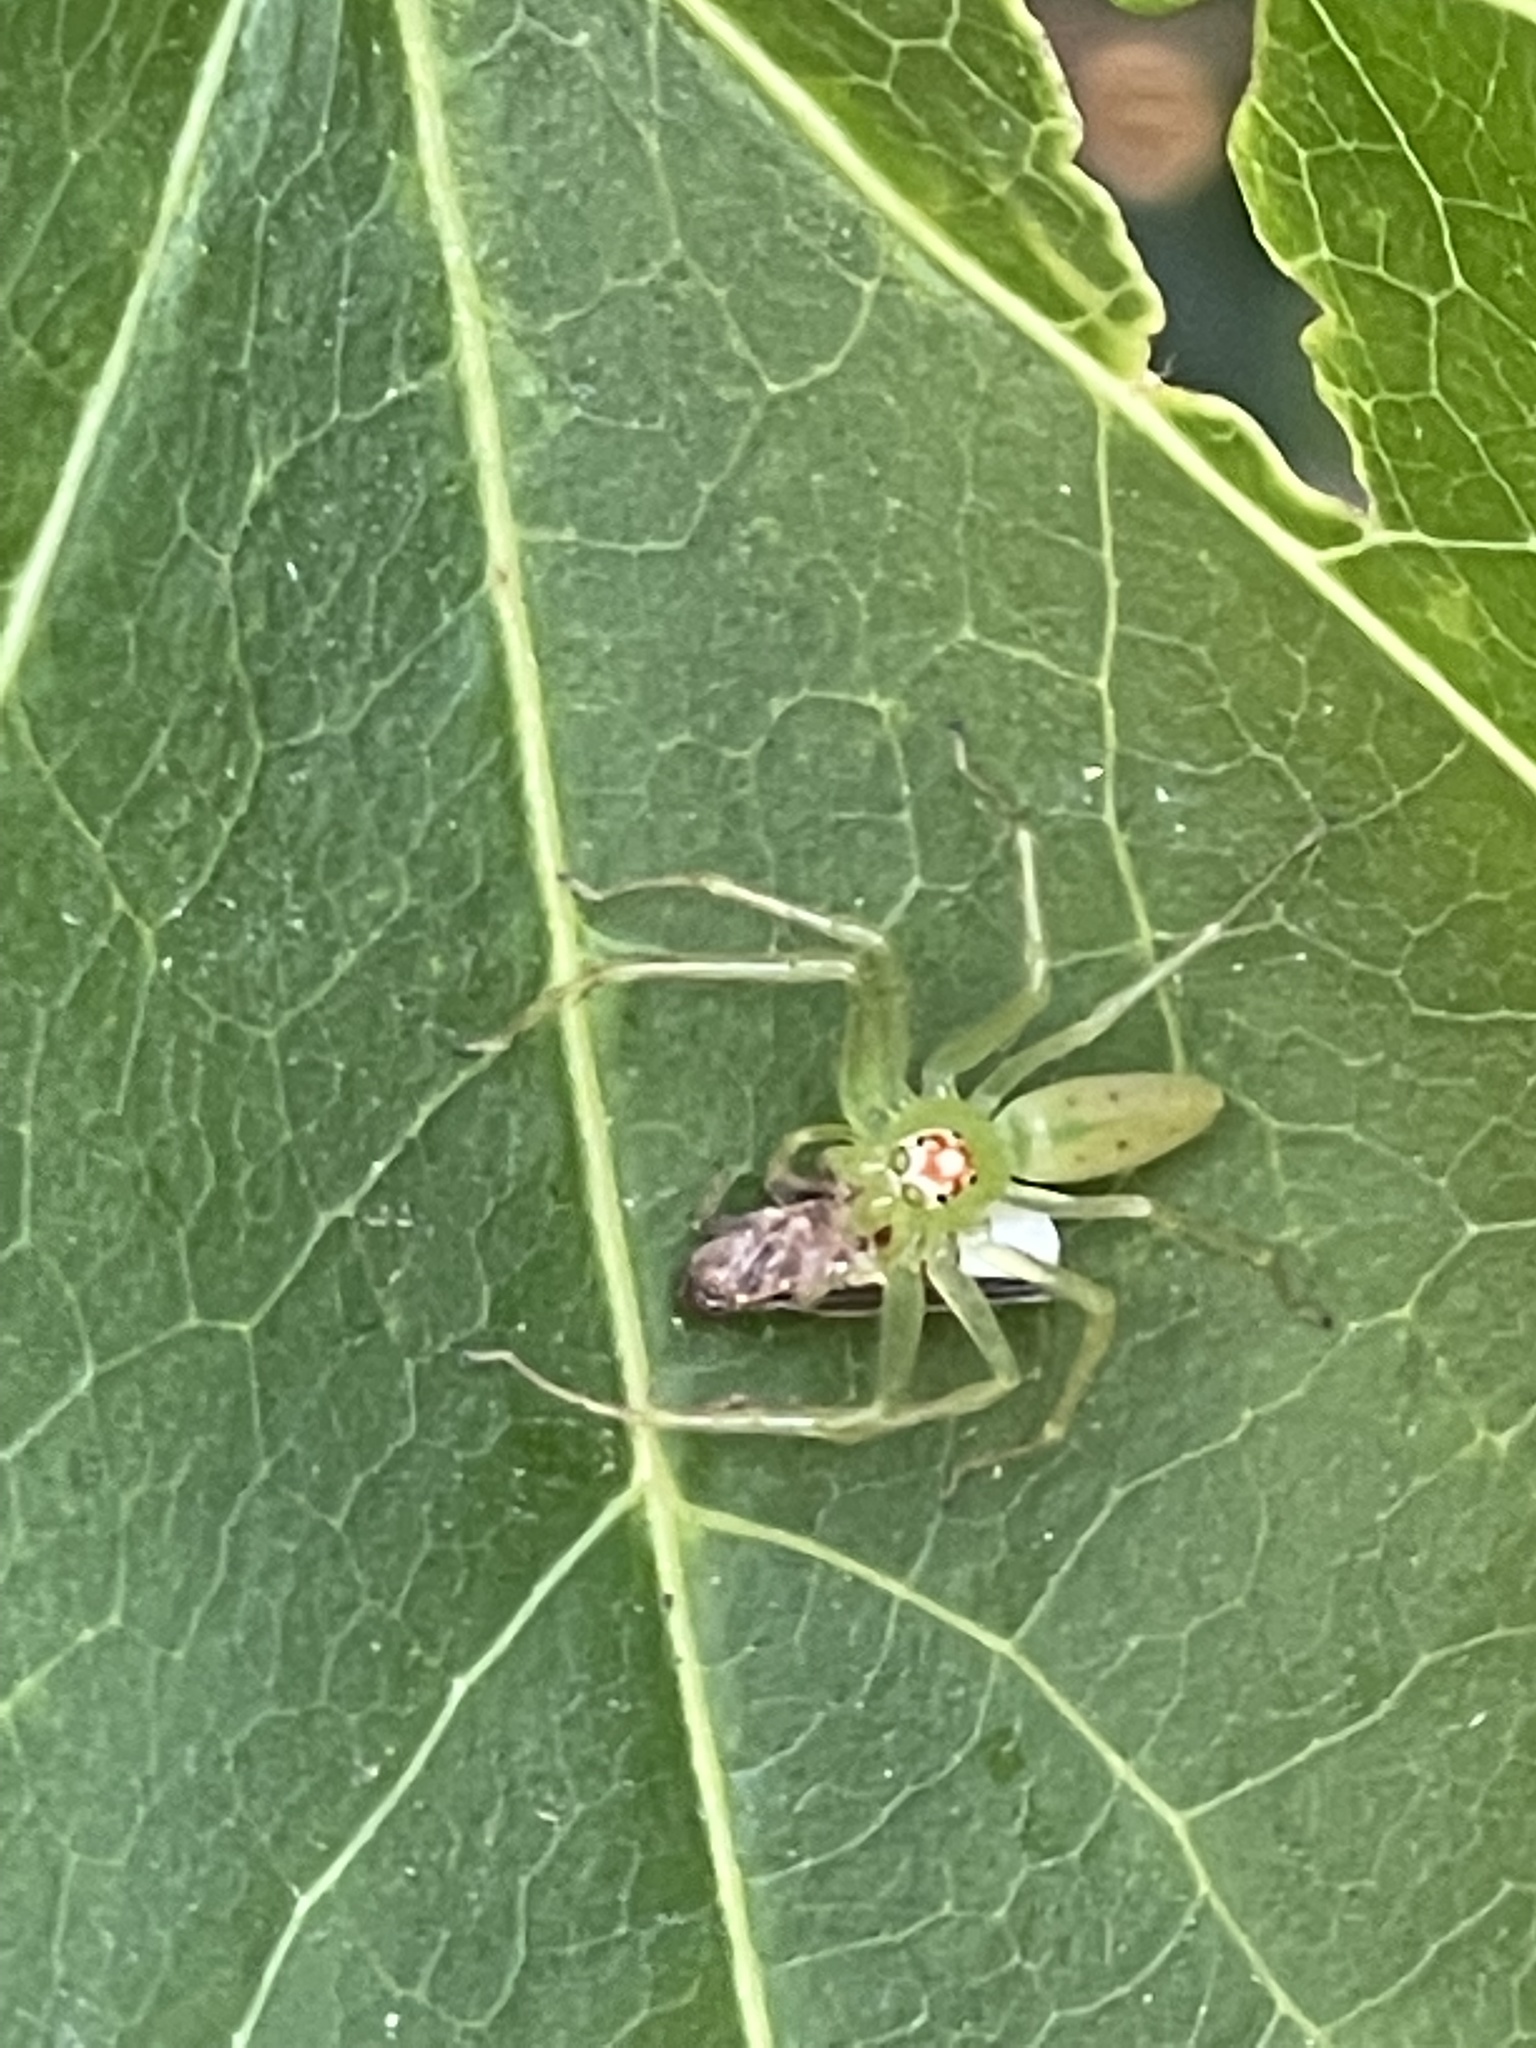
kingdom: Animalia
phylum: Arthropoda
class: Arachnida
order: Araneae
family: Salticidae
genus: Lyssomanes
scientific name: Lyssomanes viridis
